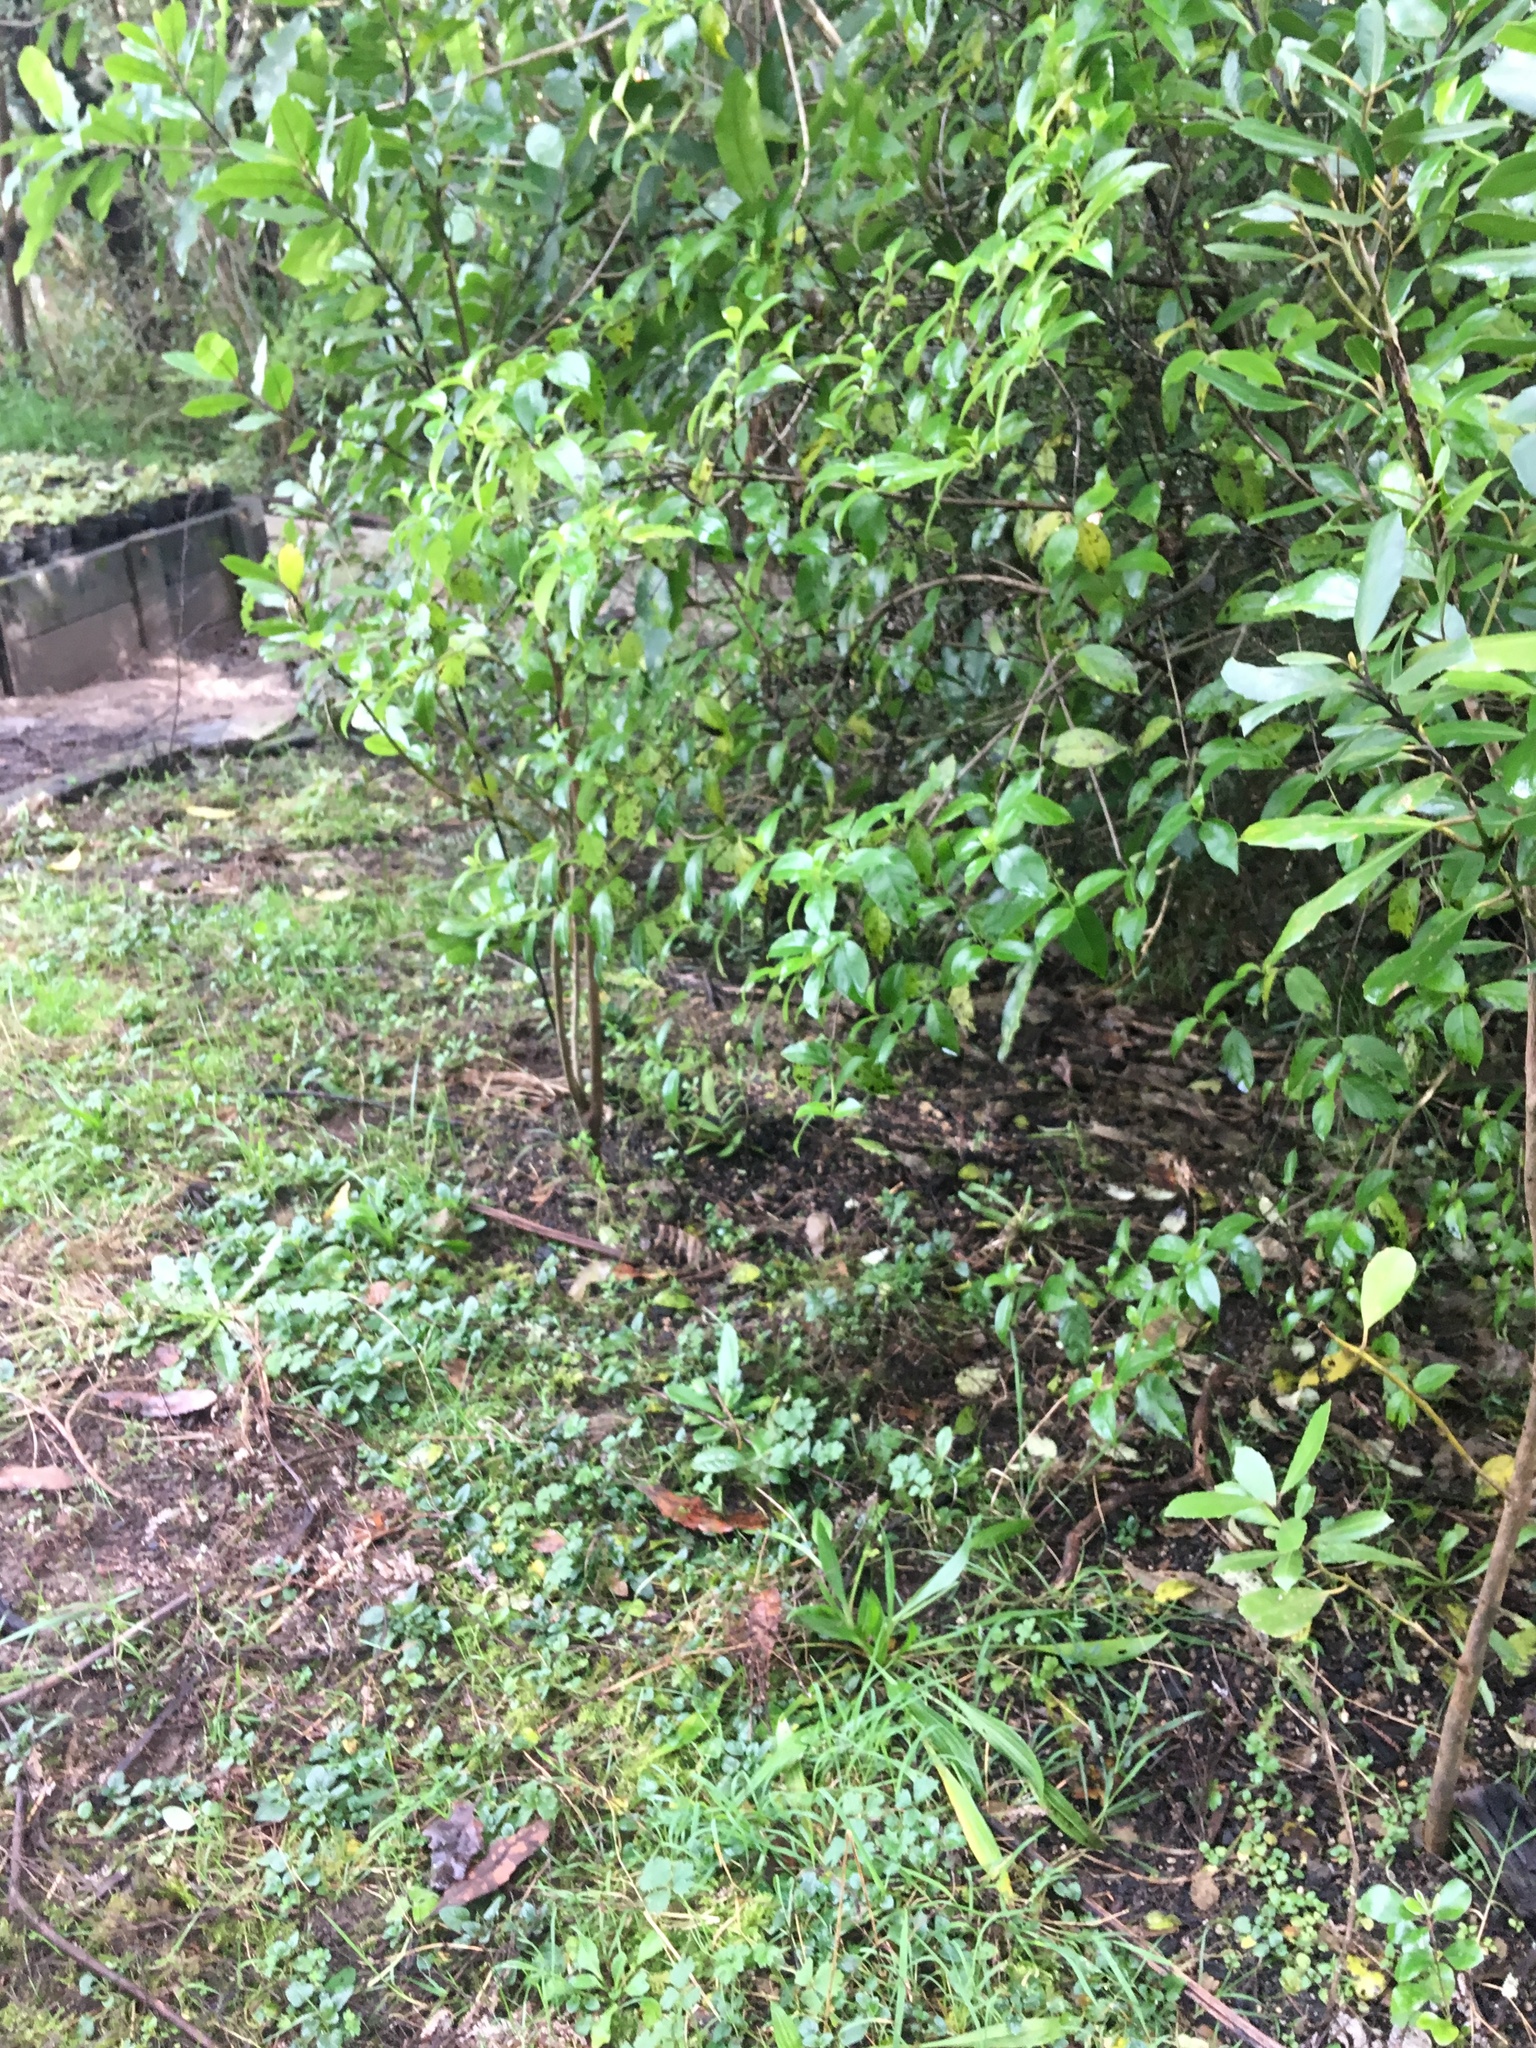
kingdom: Plantae
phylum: Tracheophyta
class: Magnoliopsida
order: Gentianales
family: Loganiaceae
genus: Geniostoma
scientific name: Geniostoma ligustrifolium
